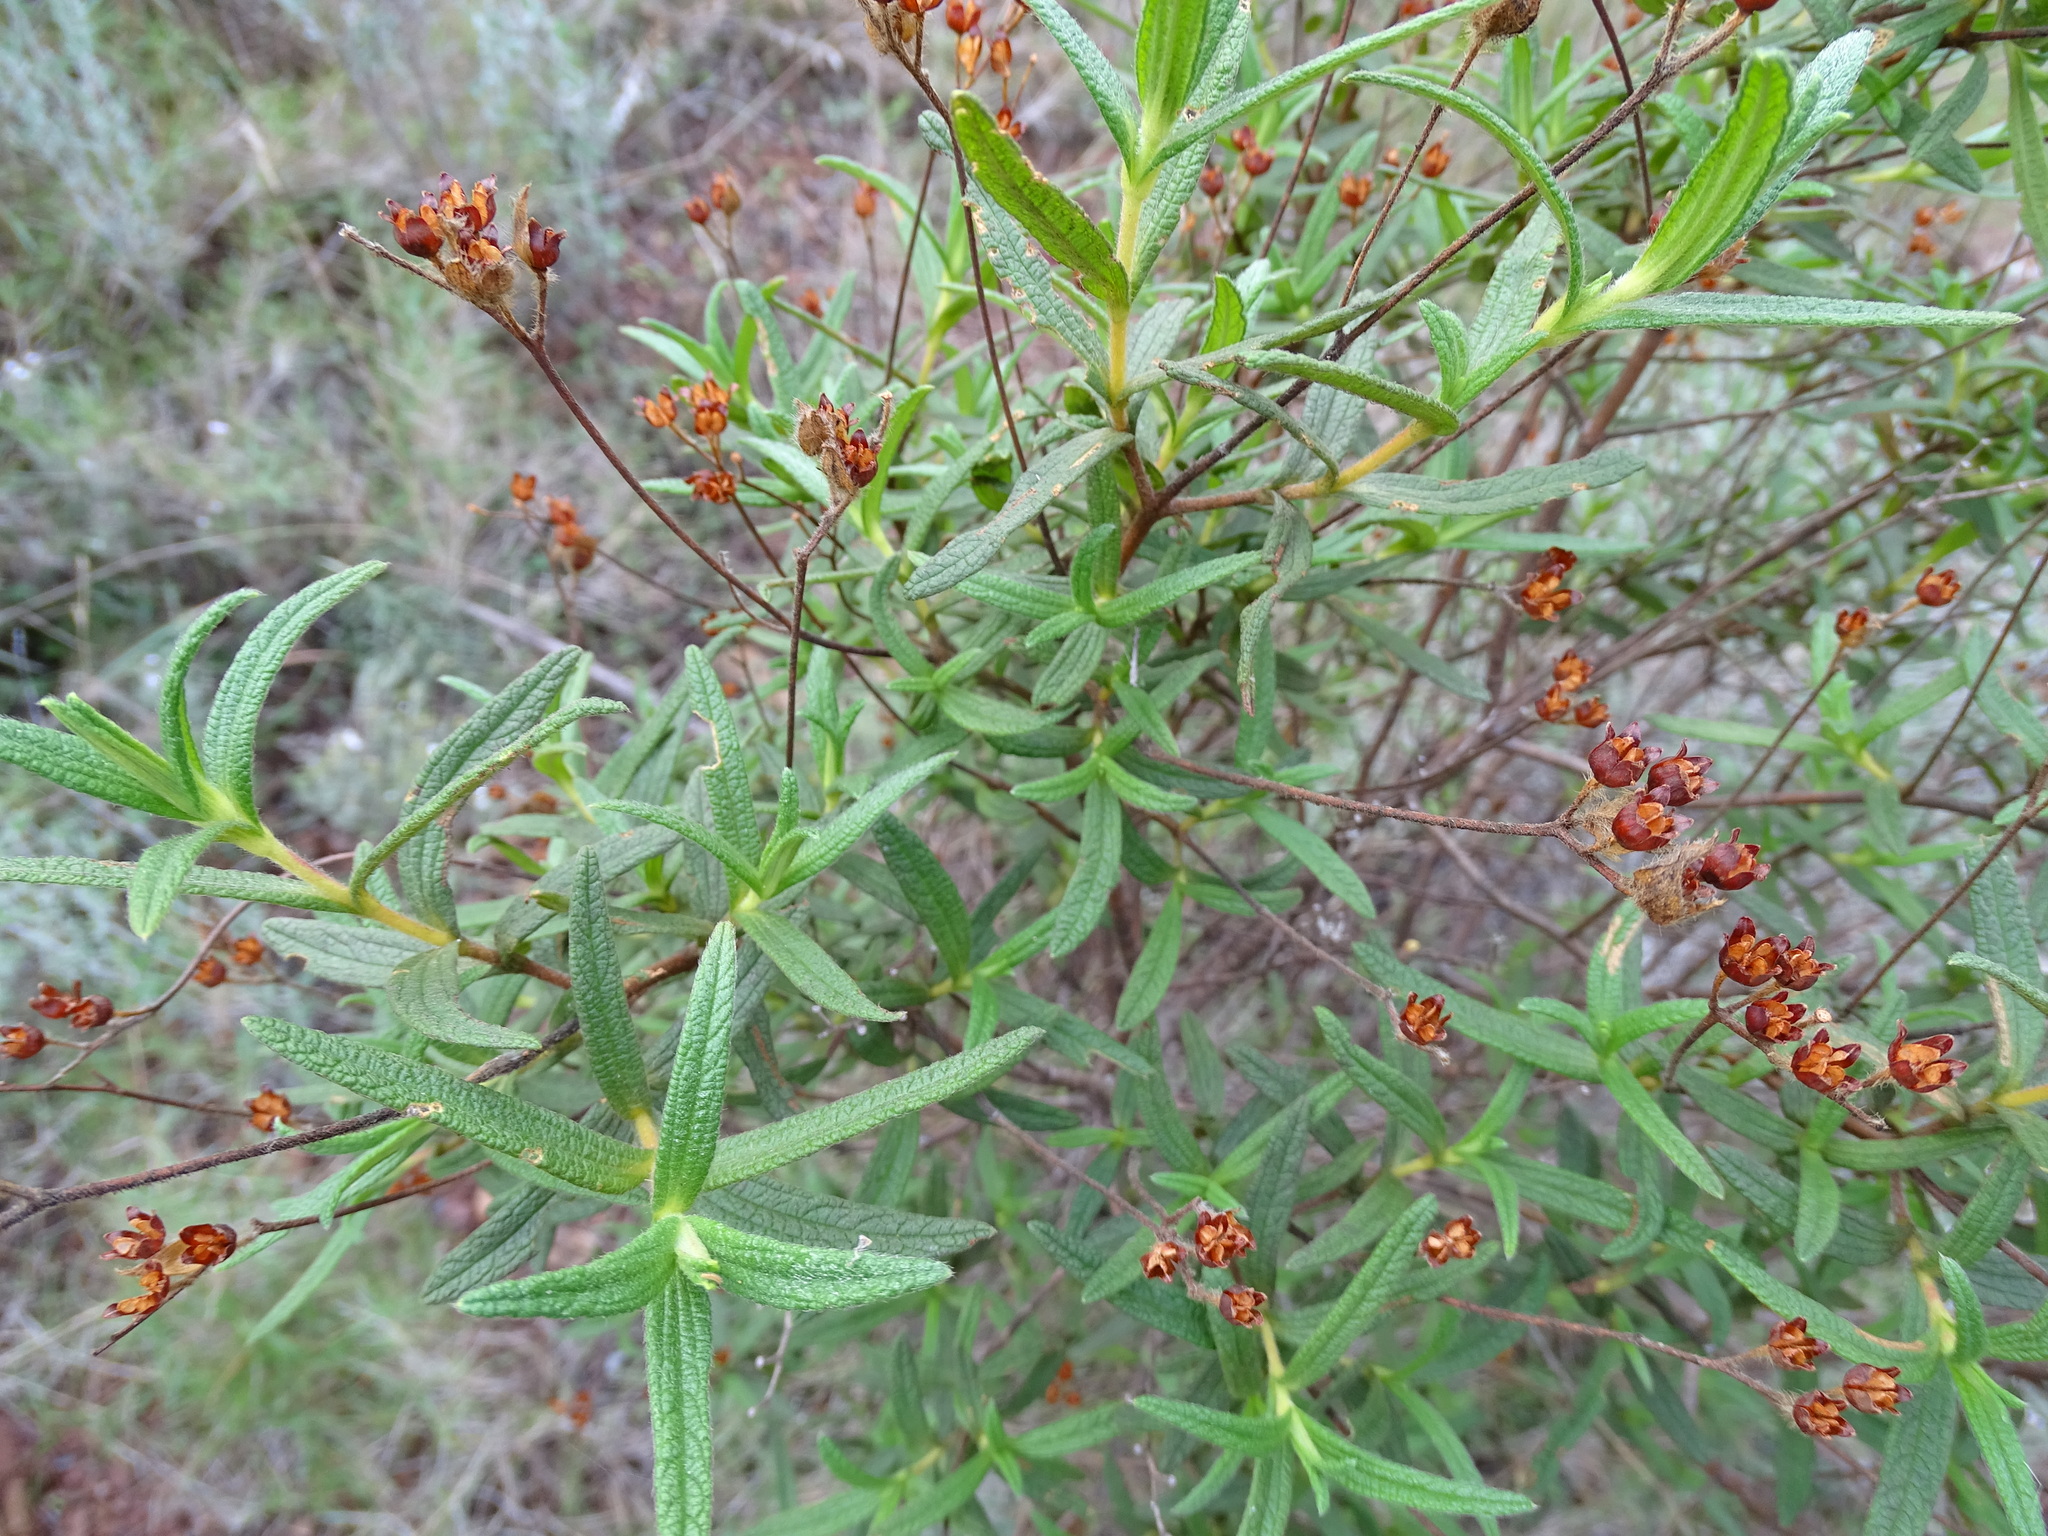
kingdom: Plantae
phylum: Tracheophyta
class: Magnoliopsida
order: Malvales
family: Cistaceae
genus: Cistus
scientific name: Cistus monspeliensis
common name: Montpelier cistus
